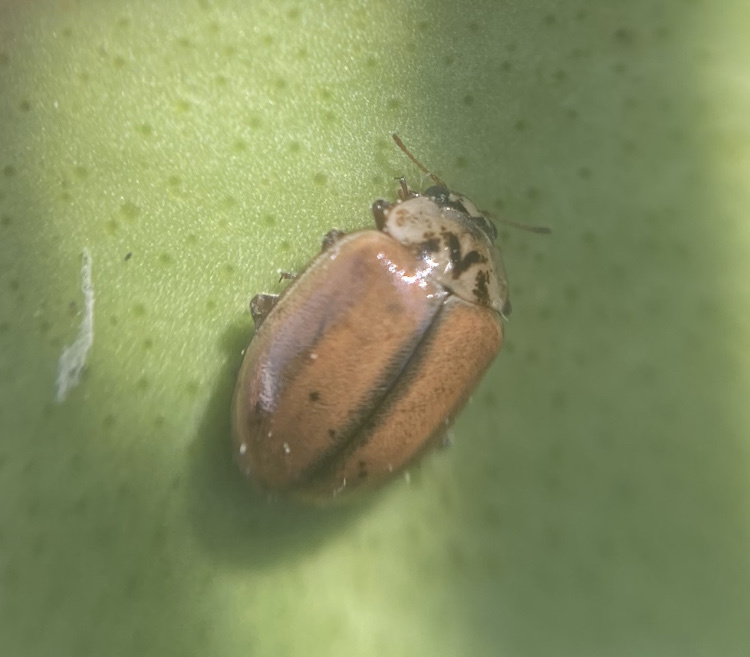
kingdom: Animalia
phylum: Arthropoda
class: Insecta
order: Coleoptera
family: Coccinellidae
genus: Aphidecta
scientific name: Aphidecta obliterata
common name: Larch ladybird
